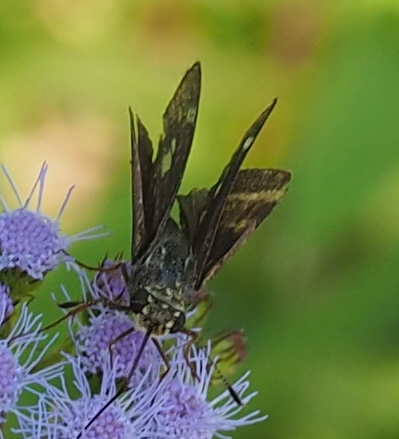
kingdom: Animalia
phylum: Arthropoda
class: Insecta
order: Lepidoptera
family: Hesperiidae
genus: Vernia
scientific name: Vernia verna
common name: Little glassywing
